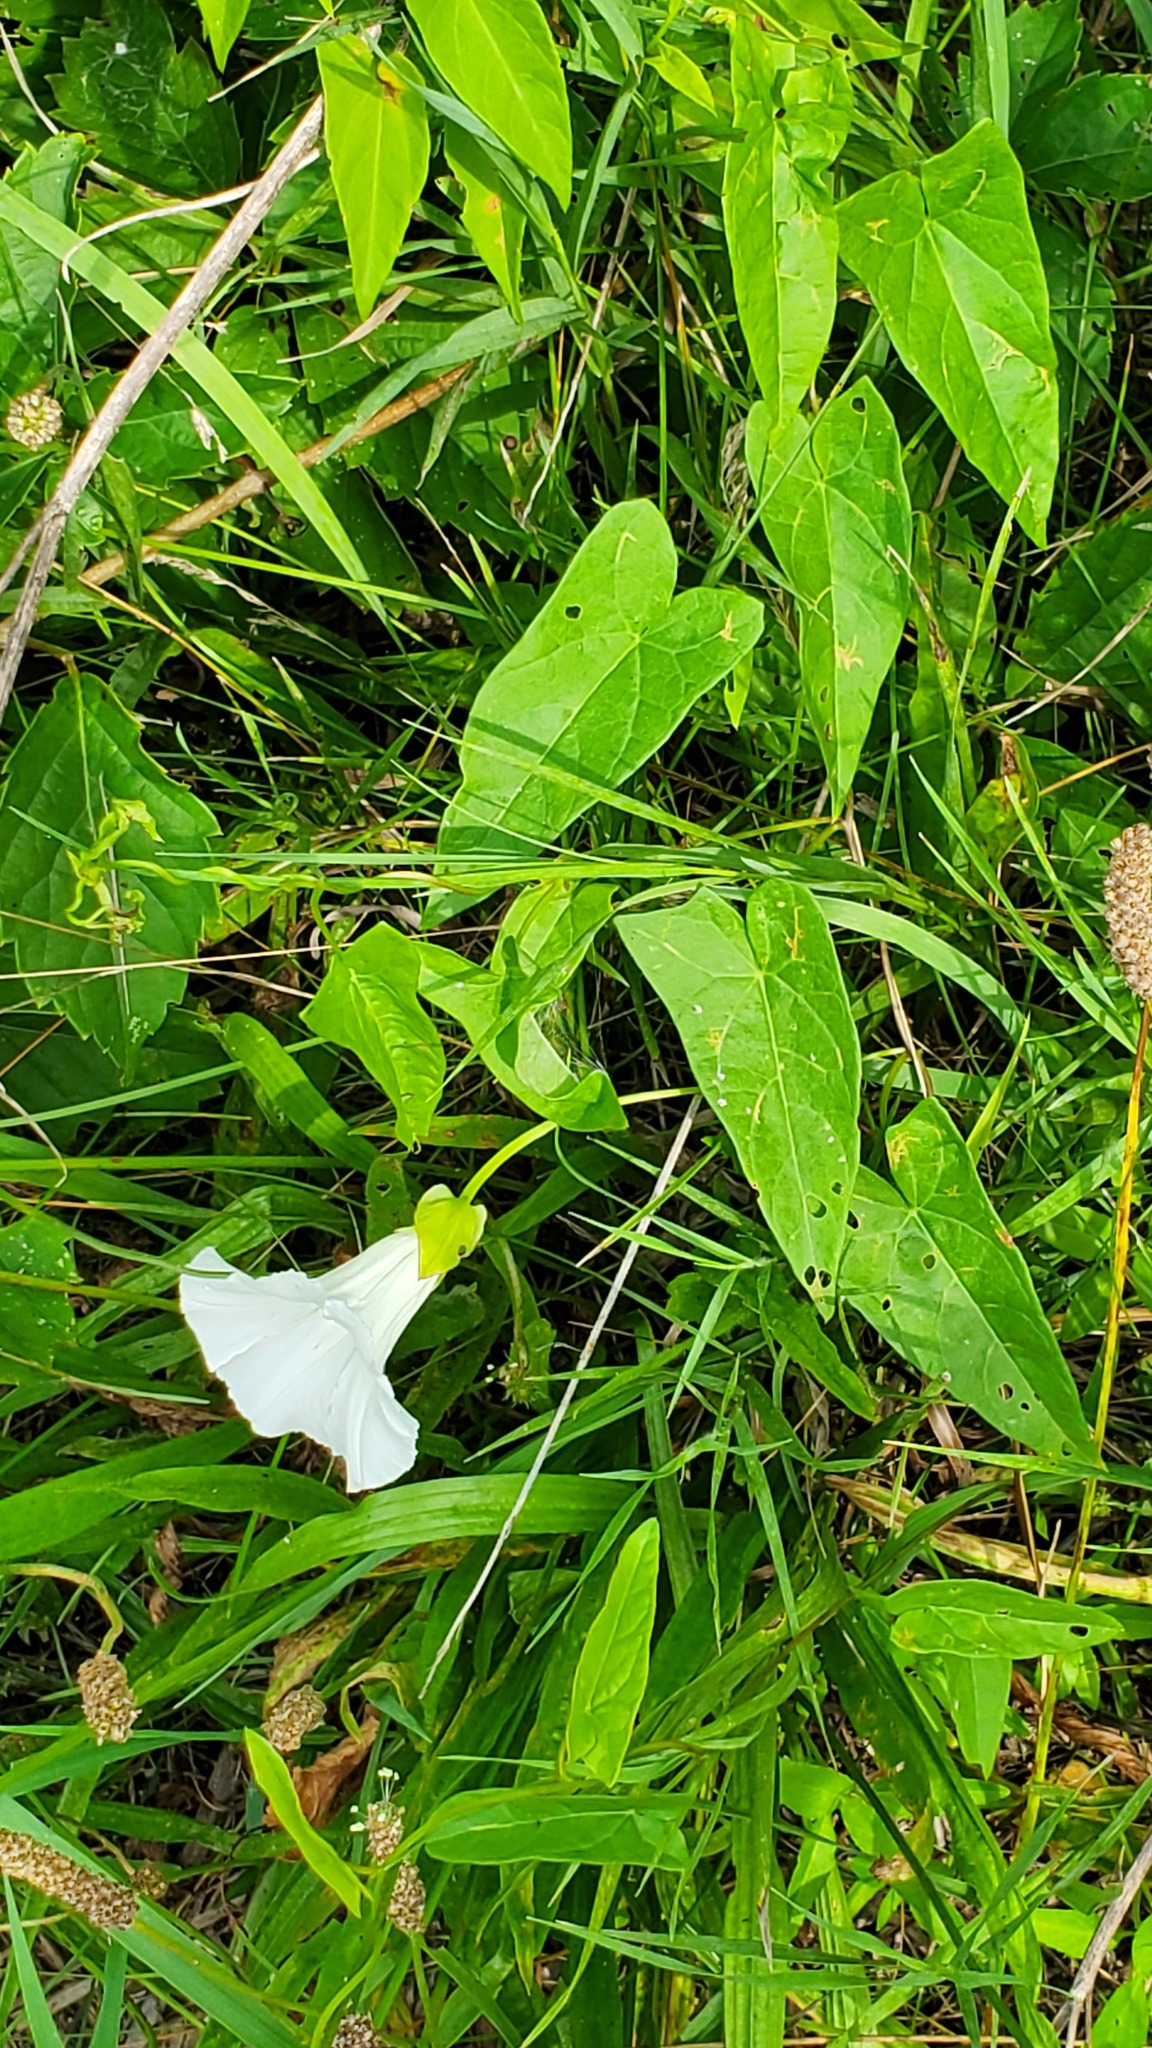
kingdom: Plantae
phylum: Tracheophyta
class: Magnoliopsida
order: Solanales
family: Convolvulaceae
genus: Calystegia
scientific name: Calystegia sepium
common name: Hedge bindweed
